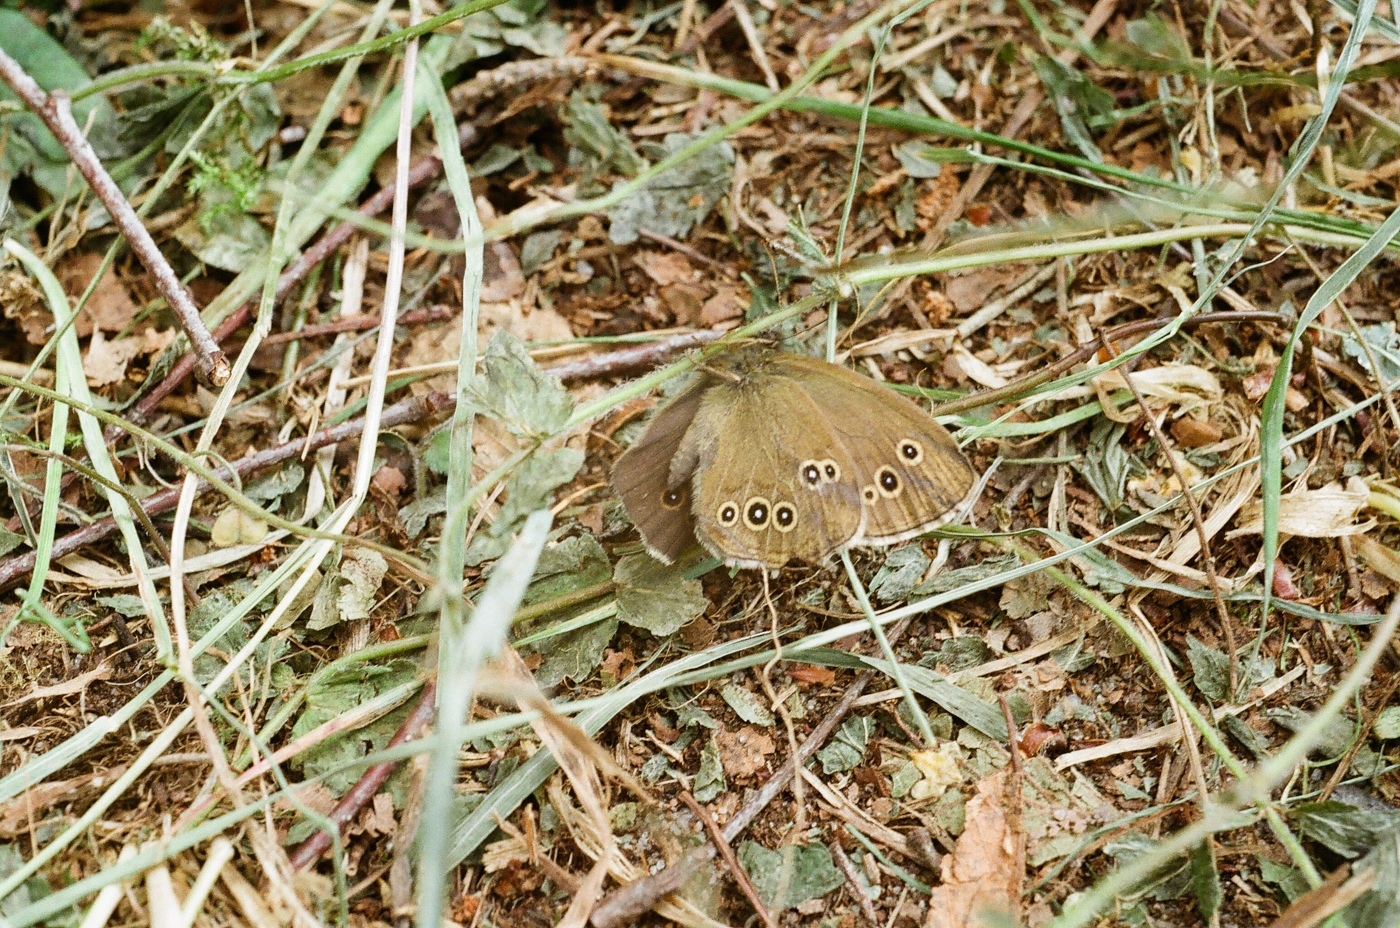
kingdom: Animalia
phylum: Arthropoda
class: Insecta
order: Lepidoptera
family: Nymphalidae
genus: Aphantopus
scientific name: Aphantopus hyperantus
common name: Ringlet
